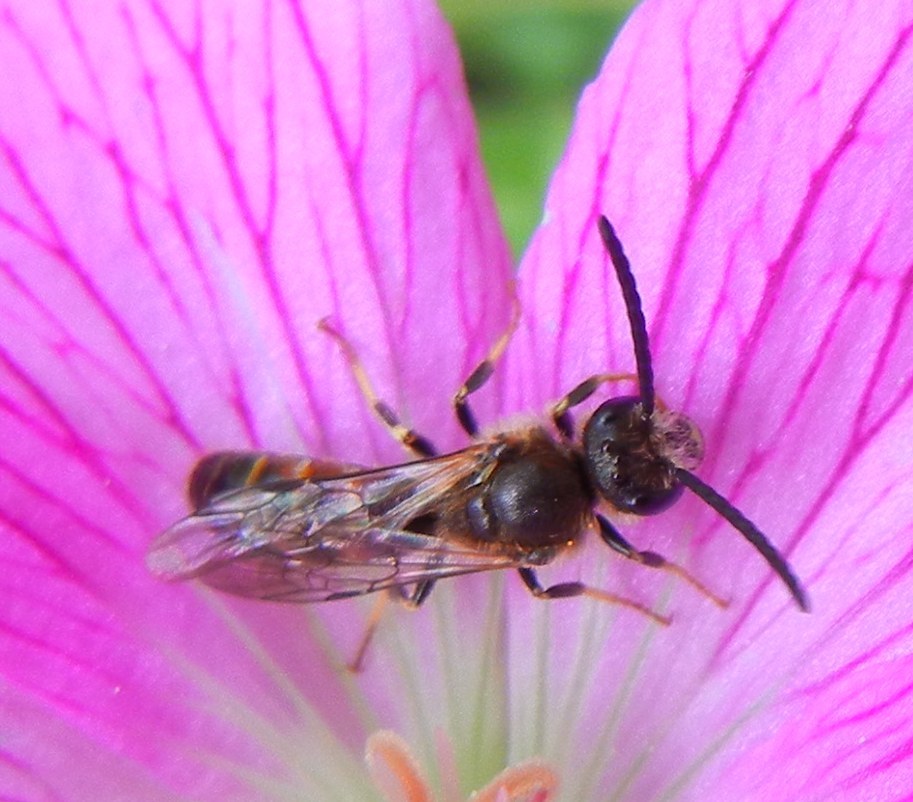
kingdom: Animalia
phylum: Arthropoda
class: Insecta
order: Hymenoptera
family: Halictidae
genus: Lasioglossum
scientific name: Lasioglossum albipes
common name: Bloomed furrow bee
